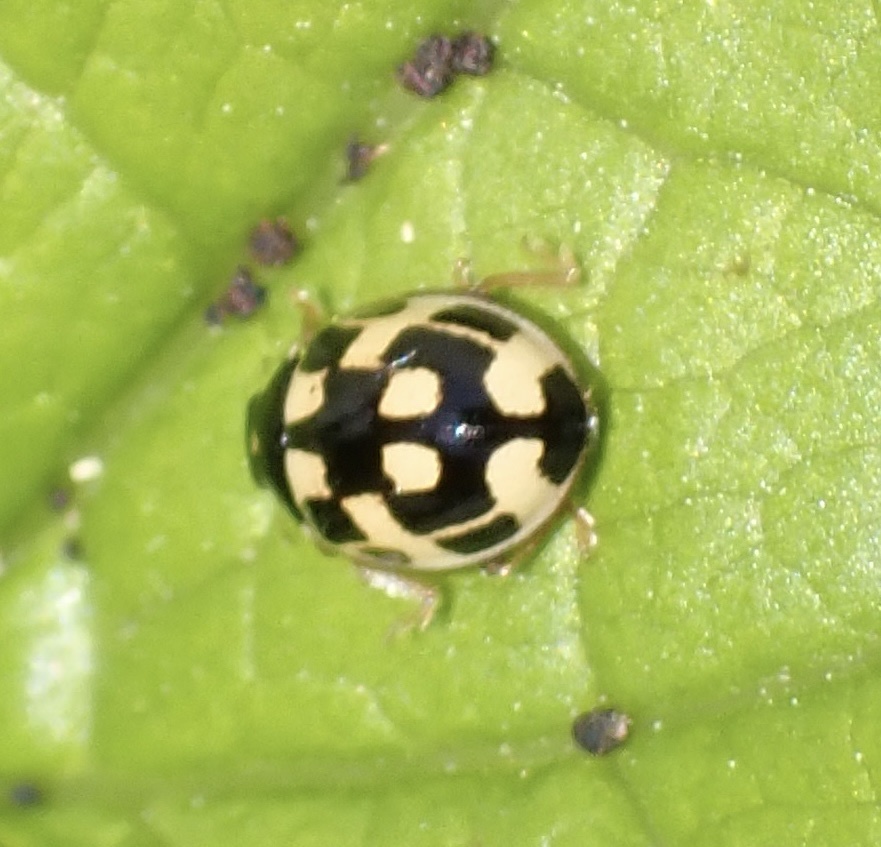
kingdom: Animalia
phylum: Arthropoda
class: Insecta
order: Coleoptera
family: Coccinellidae
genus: Propylaea
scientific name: Propylaea quatuordecimpunctata
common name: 14-spotted ladybird beetle
